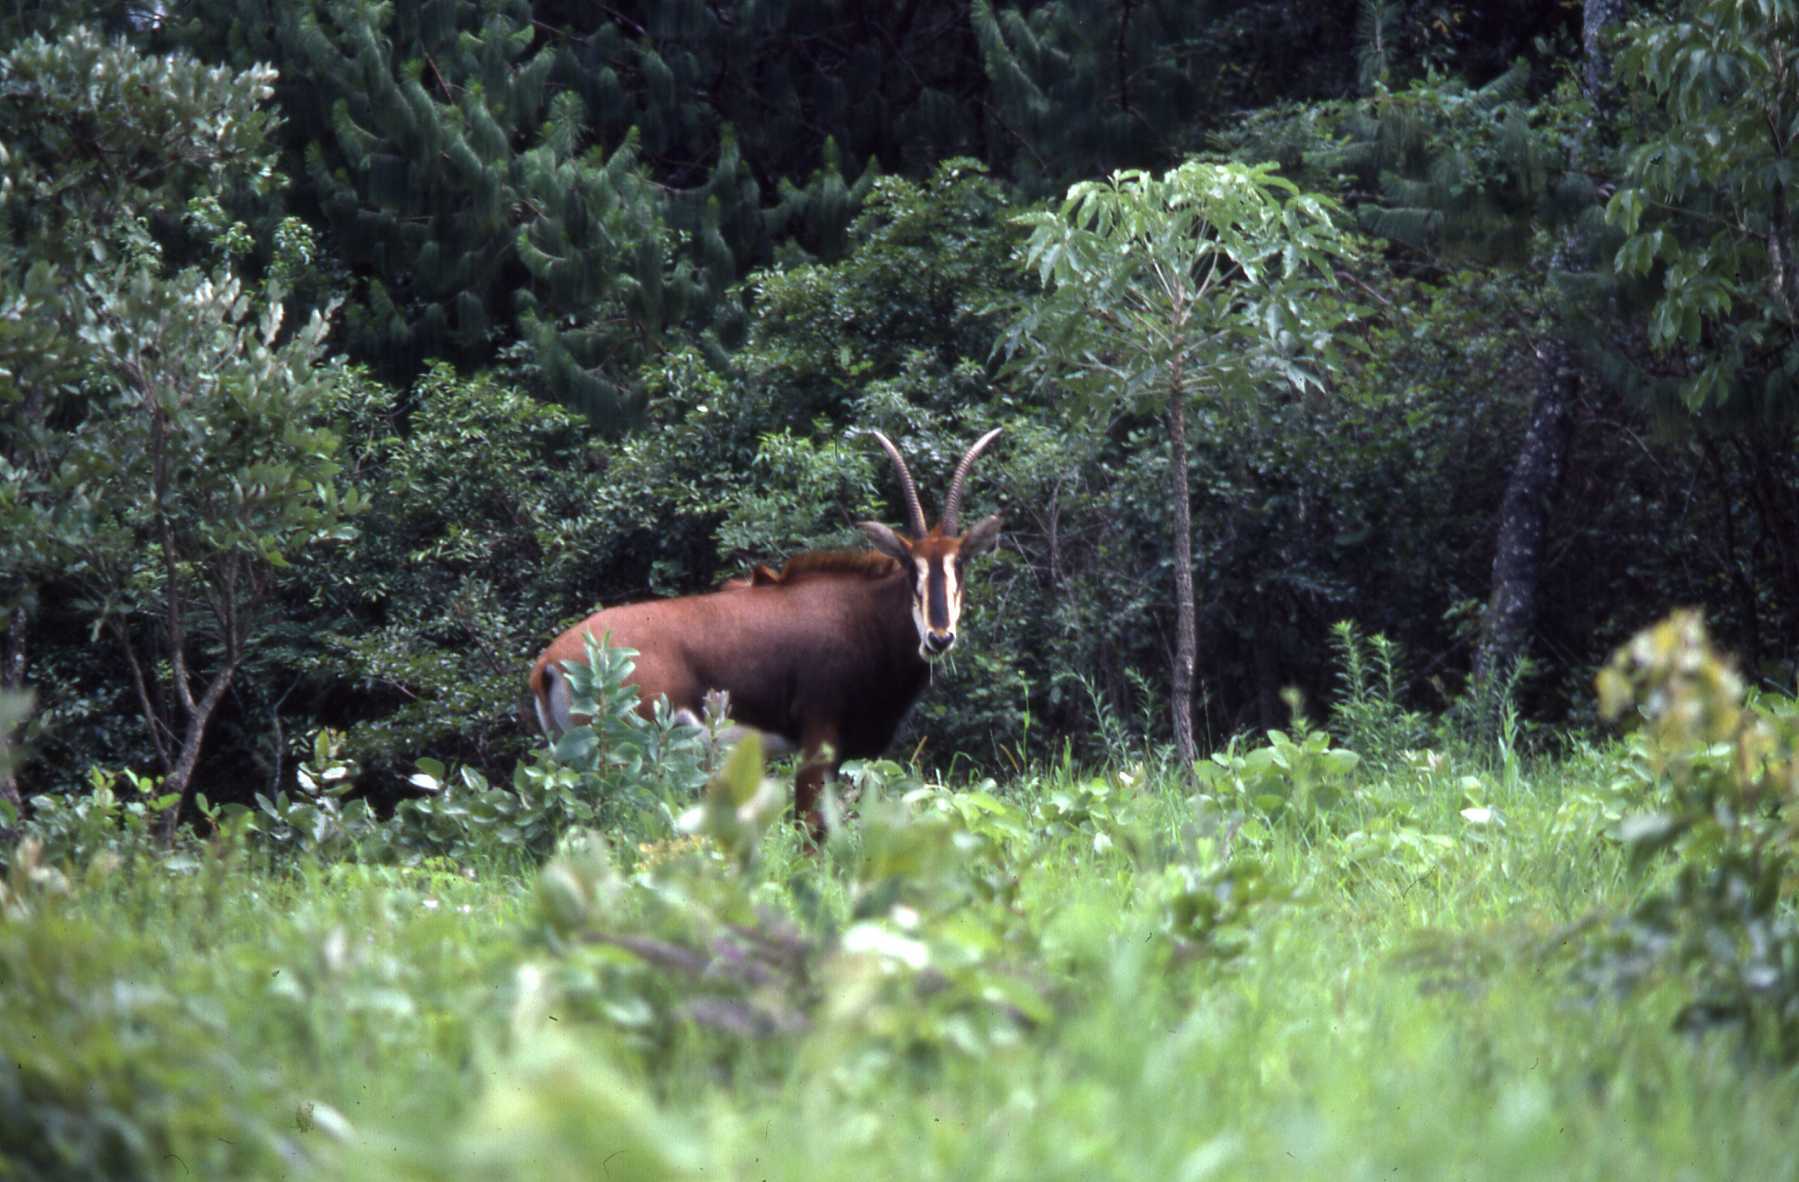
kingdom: Animalia
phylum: Chordata
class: Mammalia
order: Artiodactyla
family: Bovidae
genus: Hippotragus
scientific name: Hippotragus niger
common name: Sable antelope
